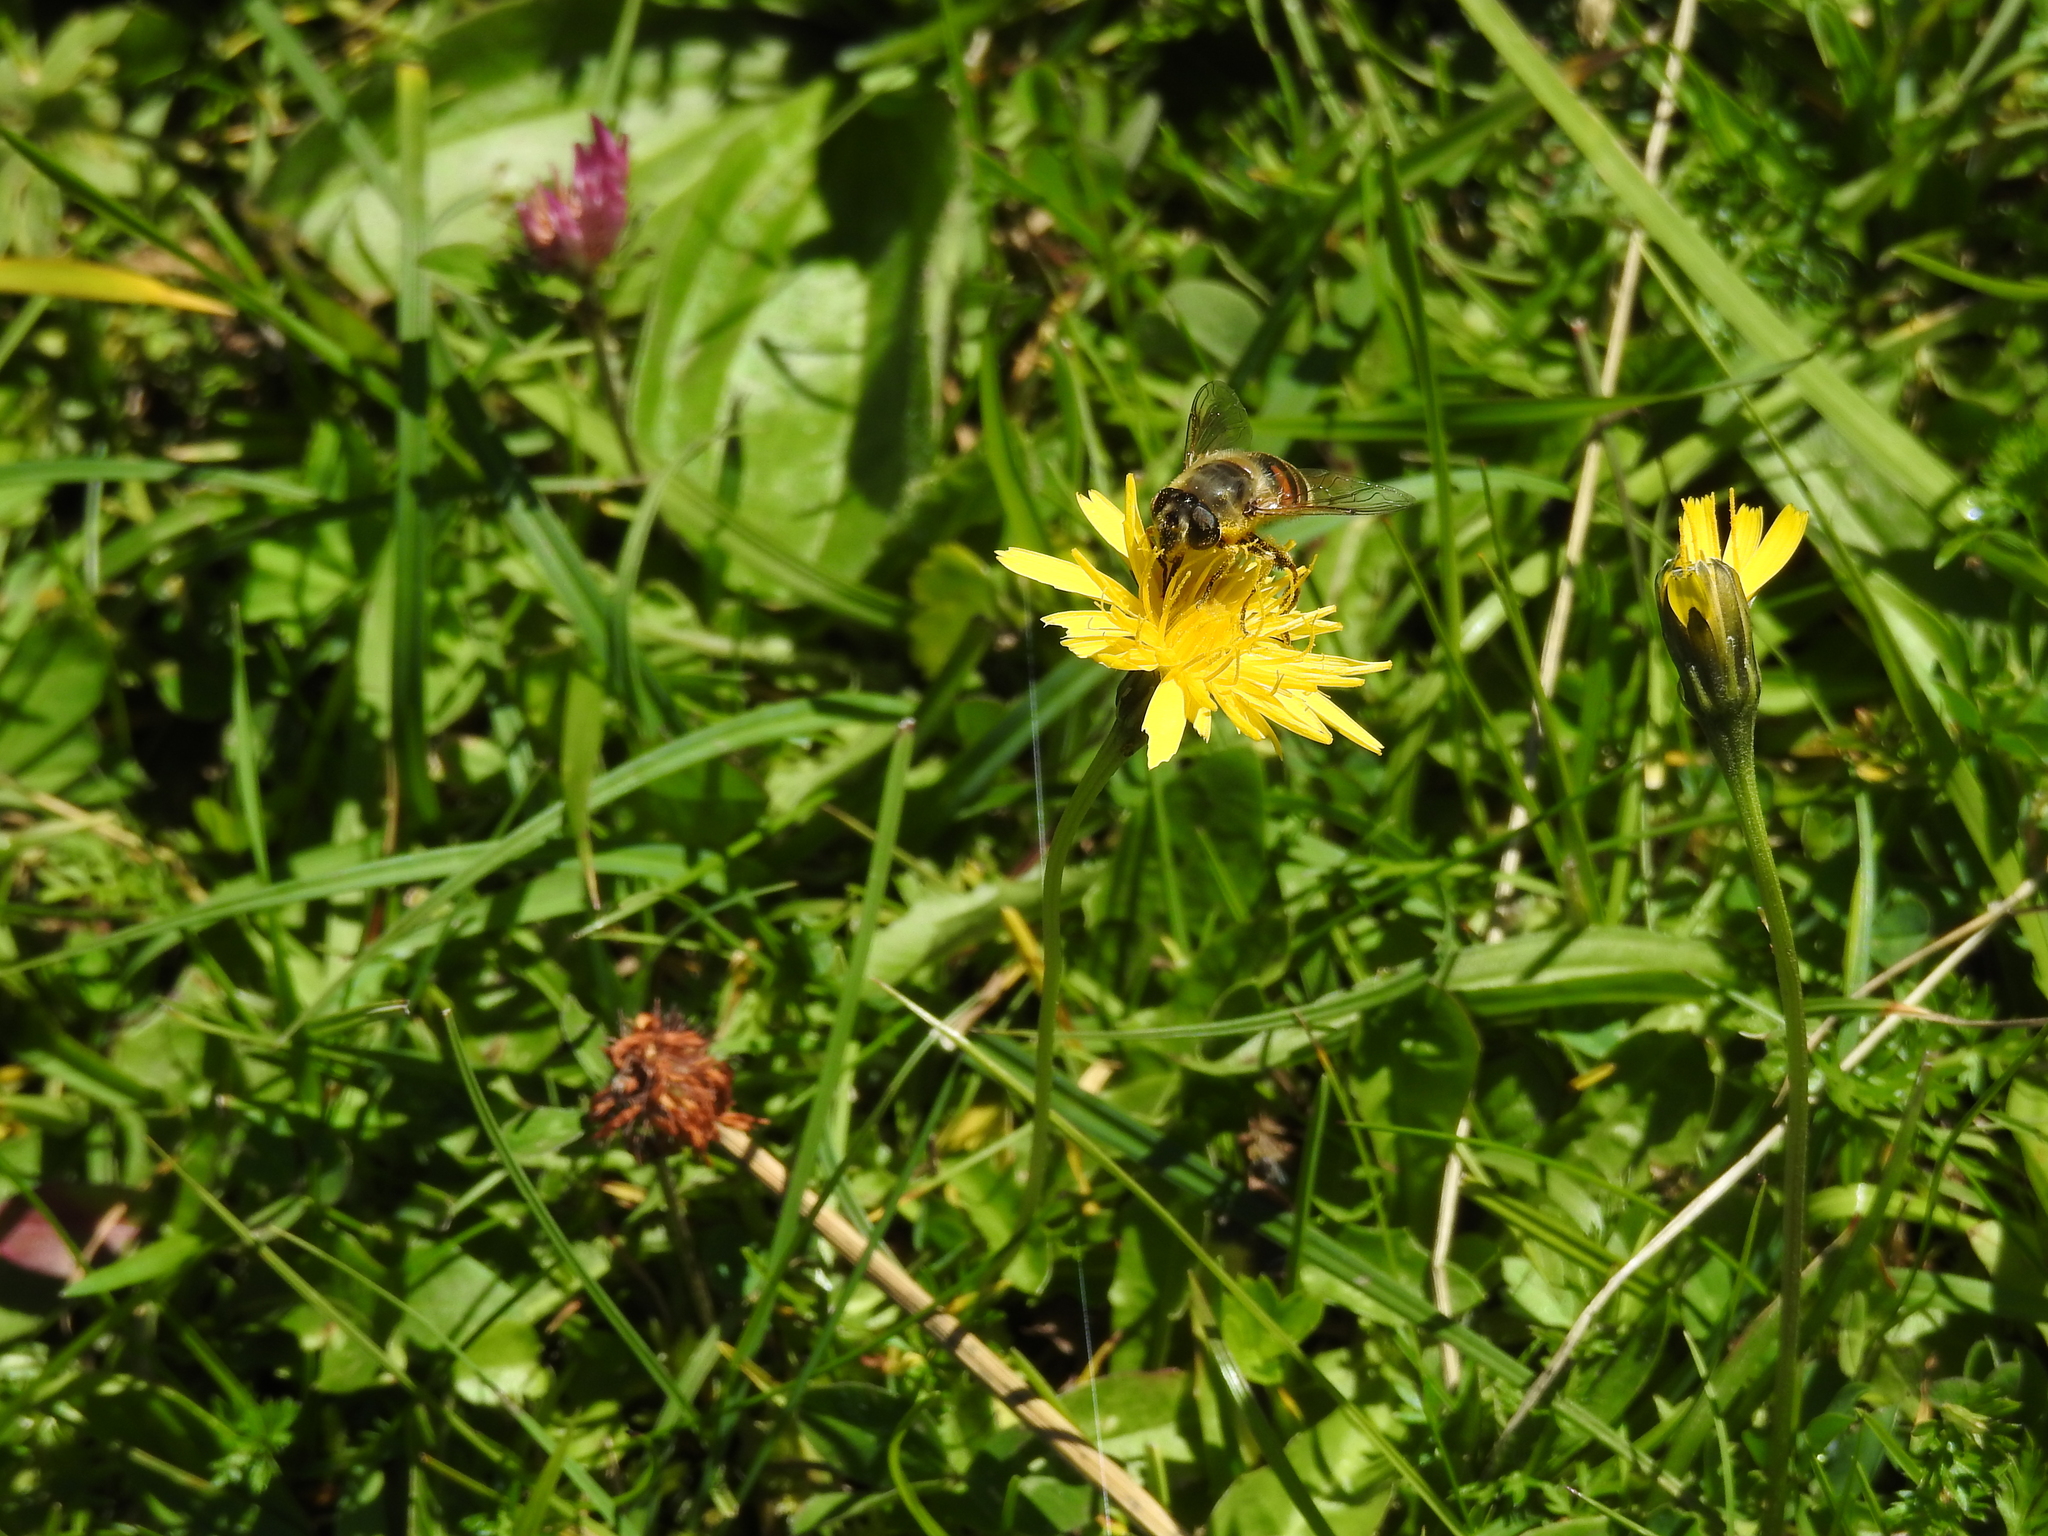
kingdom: Animalia
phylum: Arthropoda
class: Insecta
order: Diptera
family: Syrphidae
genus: Eristalis
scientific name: Eristalis tenax
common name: Drone fly
